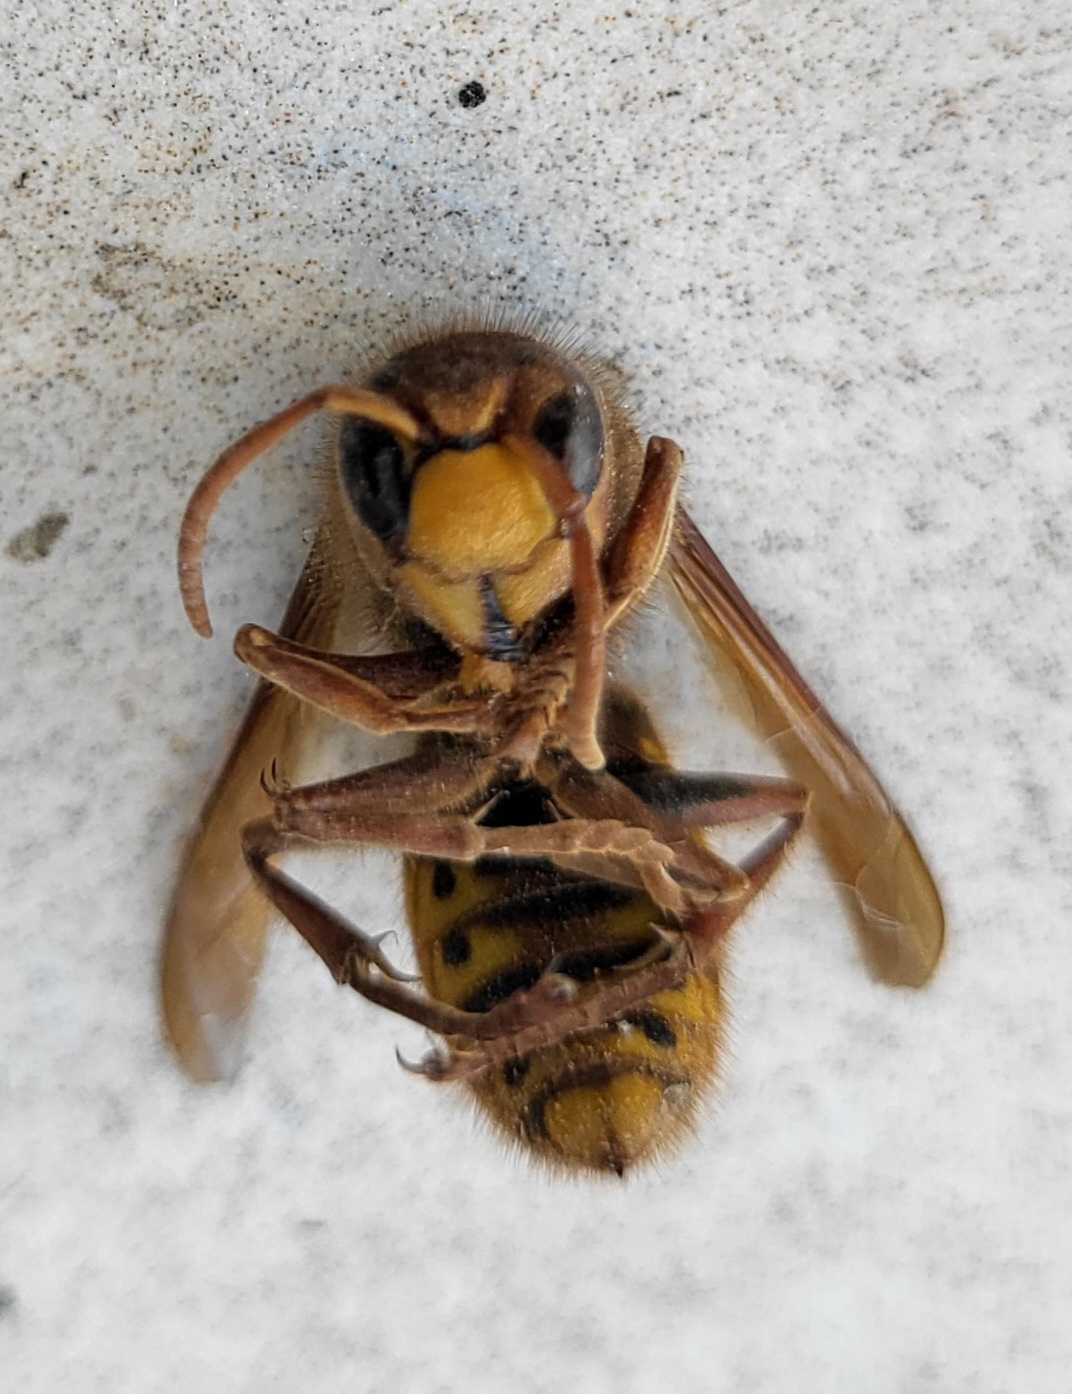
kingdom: Animalia
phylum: Arthropoda
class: Insecta
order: Hymenoptera
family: Vespidae
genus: Vespa
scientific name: Vespa crabro
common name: Hornet
